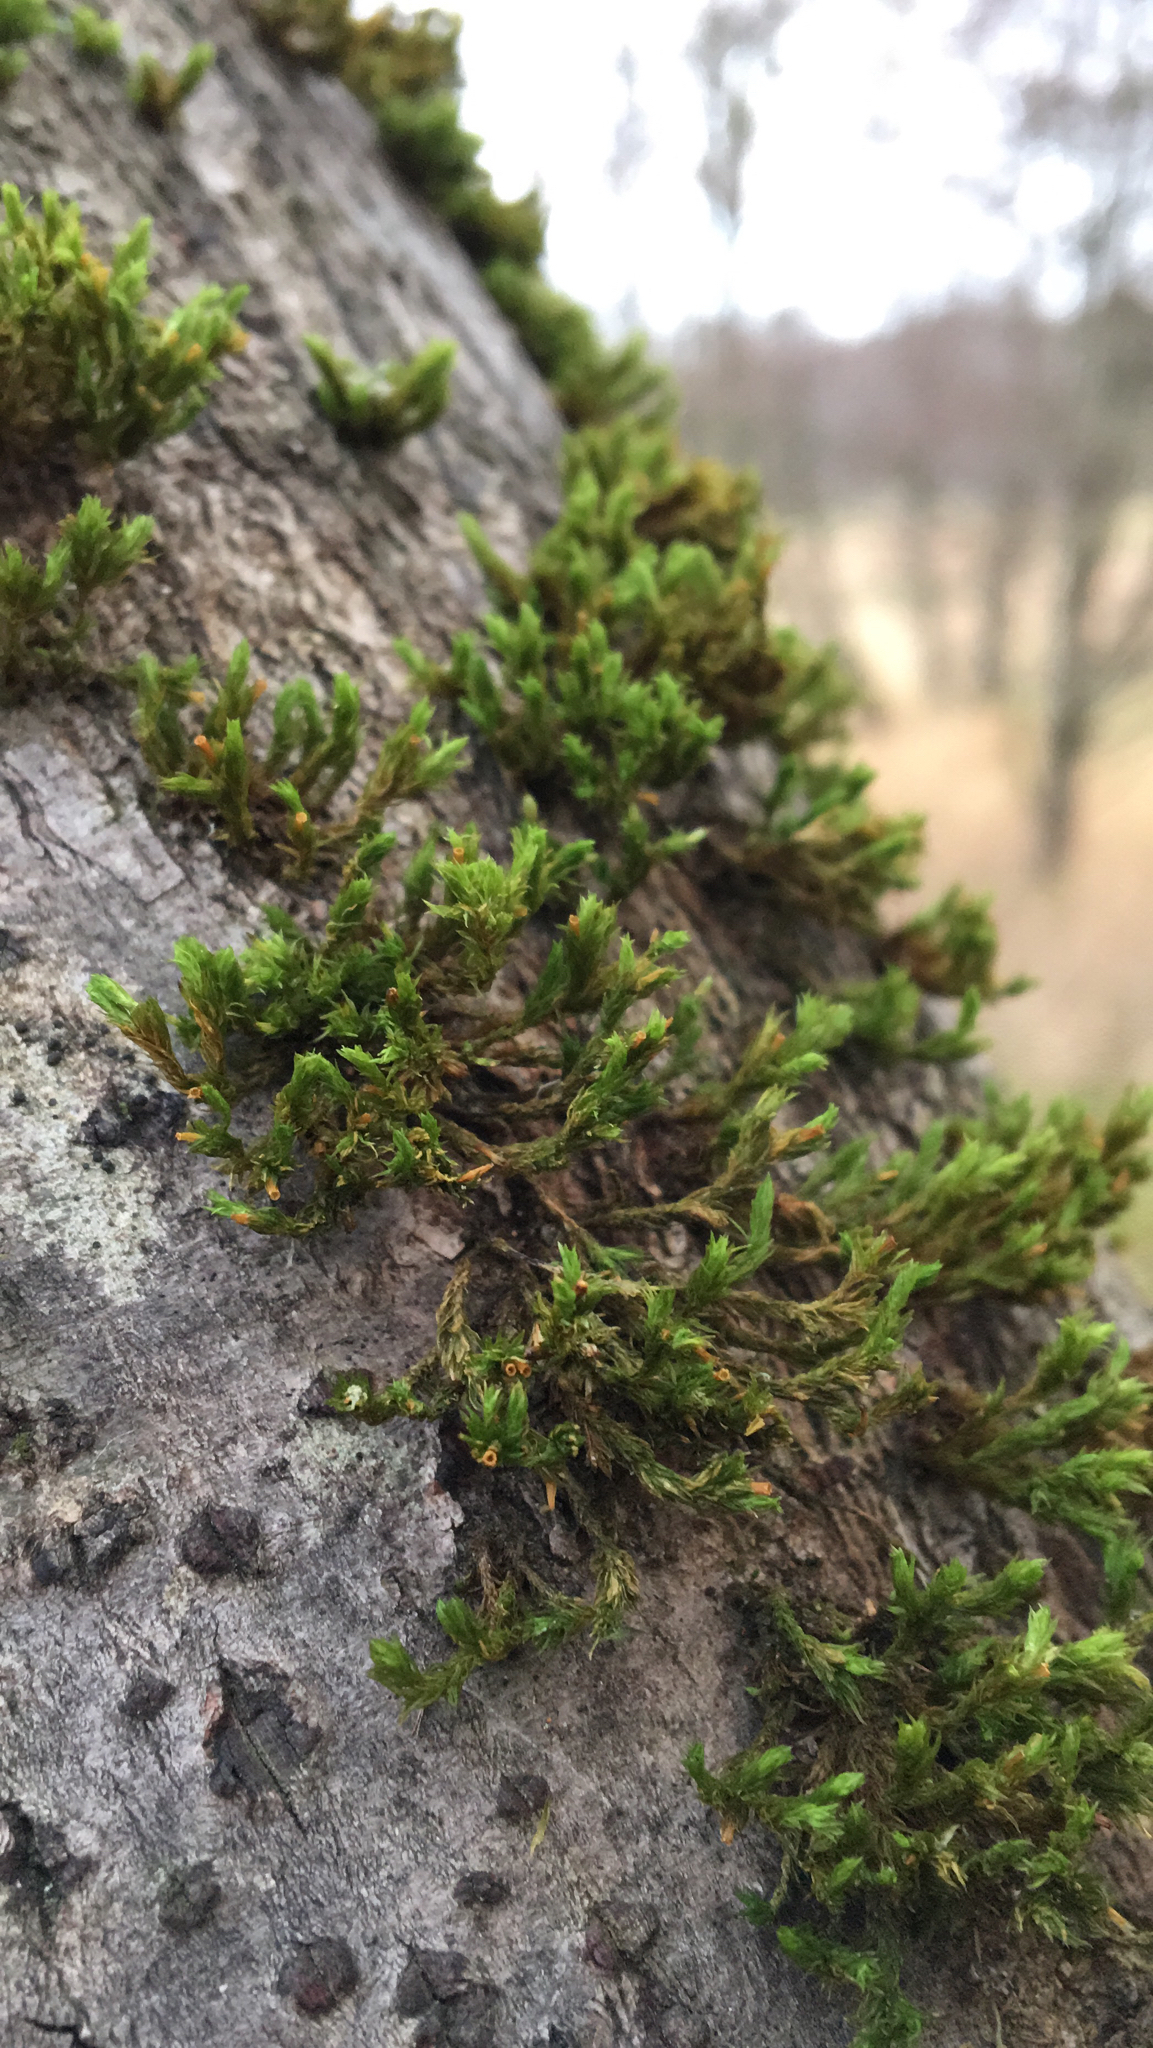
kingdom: Plantae
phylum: Bryophyta
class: Bryopsida
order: Orthotrichales
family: Orthotrichaceae
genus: Lewinskya
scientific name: Lewinskya affinis
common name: Wood bristle-moss
